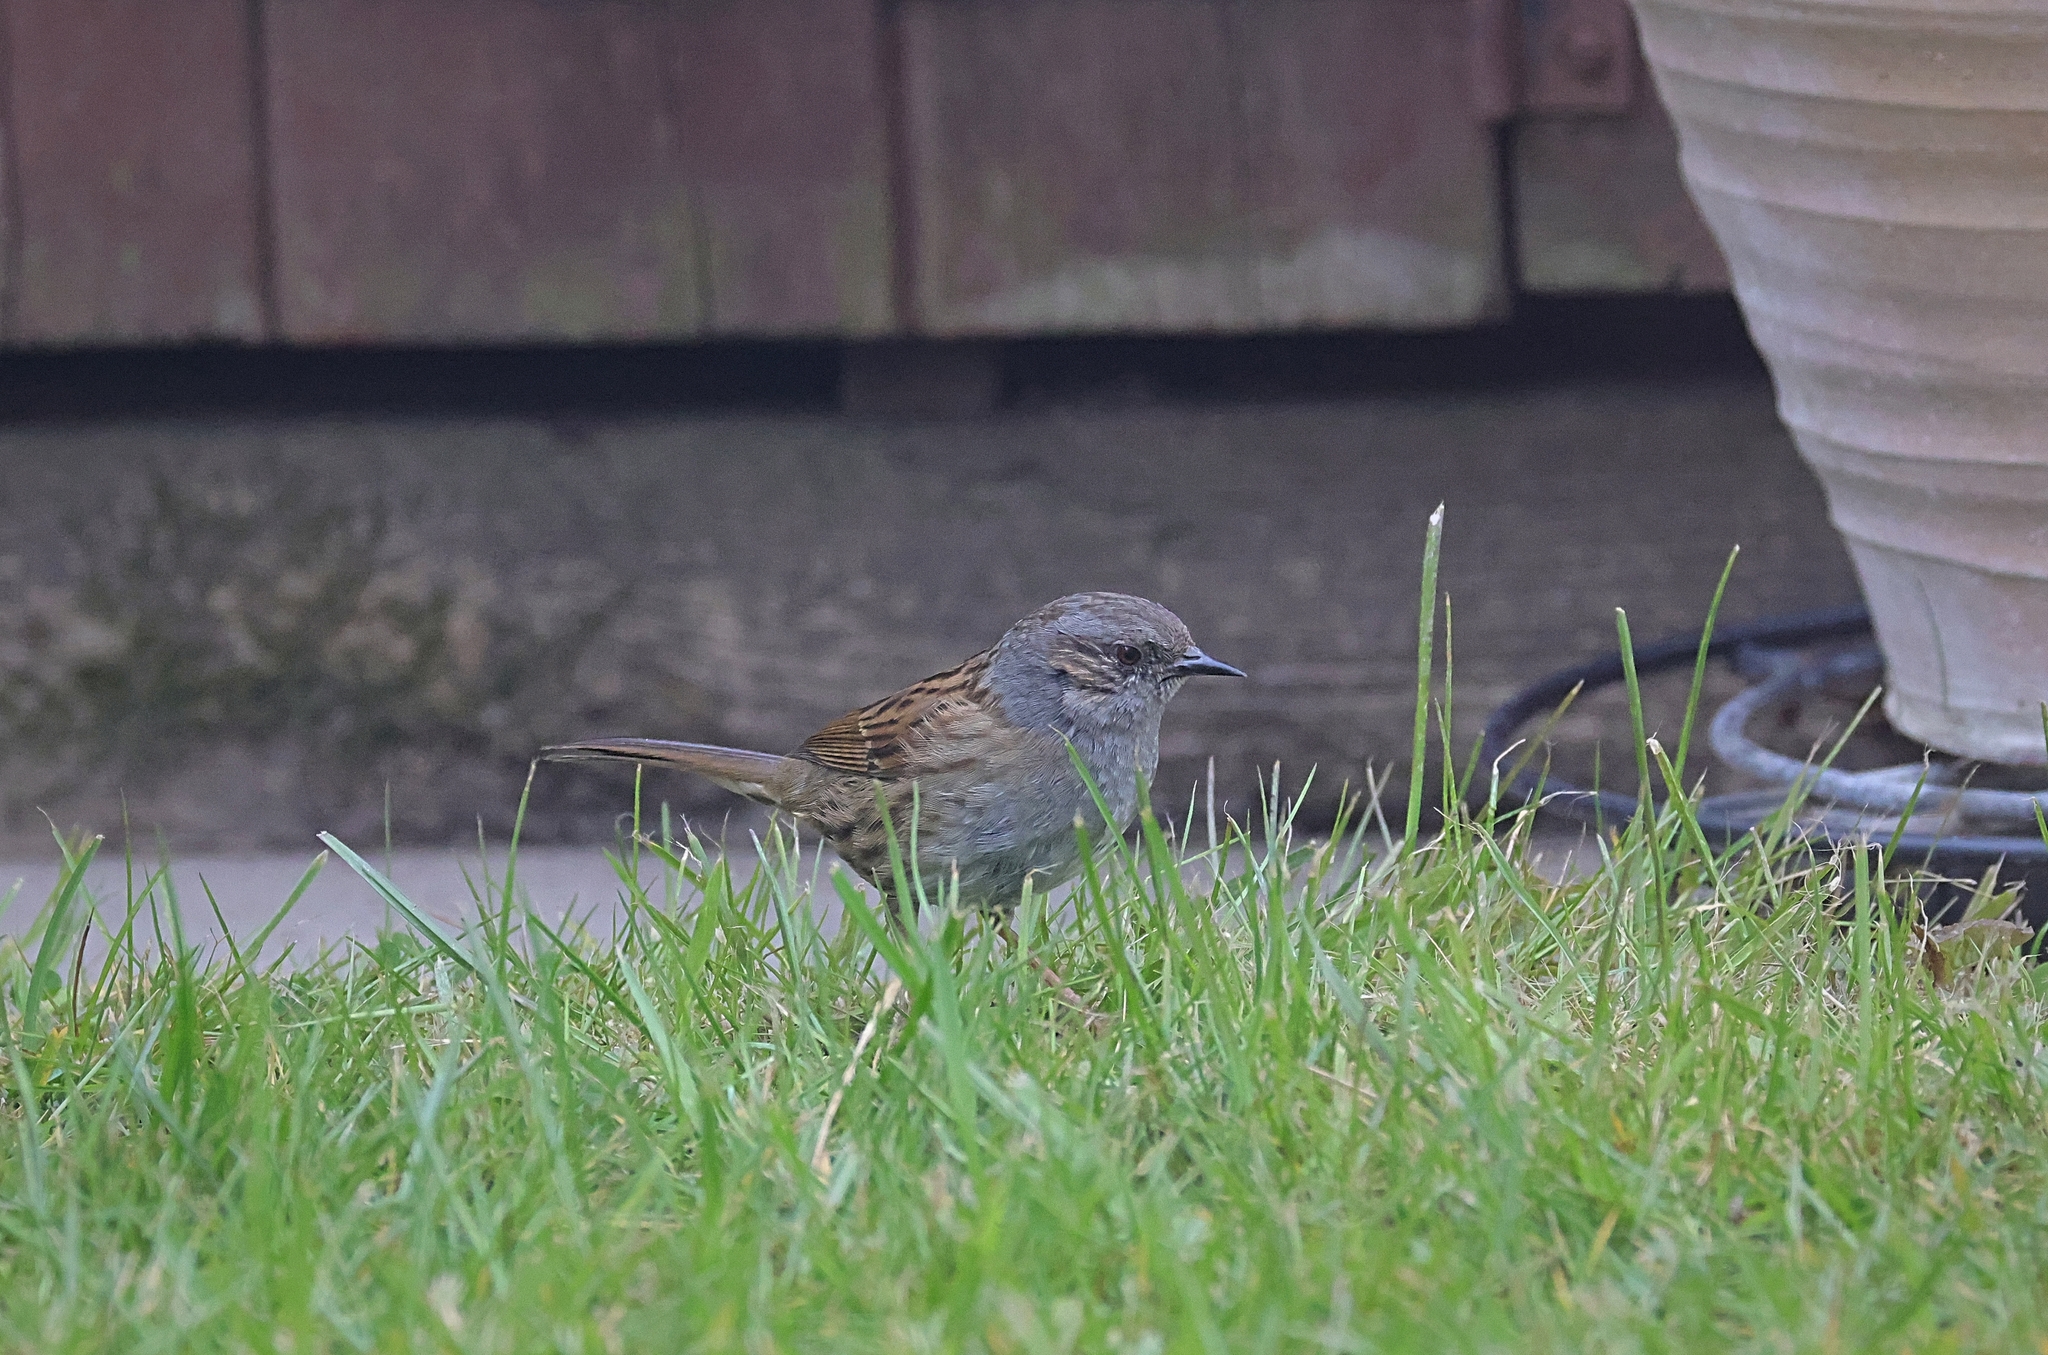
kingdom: Animalia
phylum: Chordata
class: Aves
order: Passeriformes
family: Prunellidae
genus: Prunella
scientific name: Prunella modularis
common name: Dunnock
